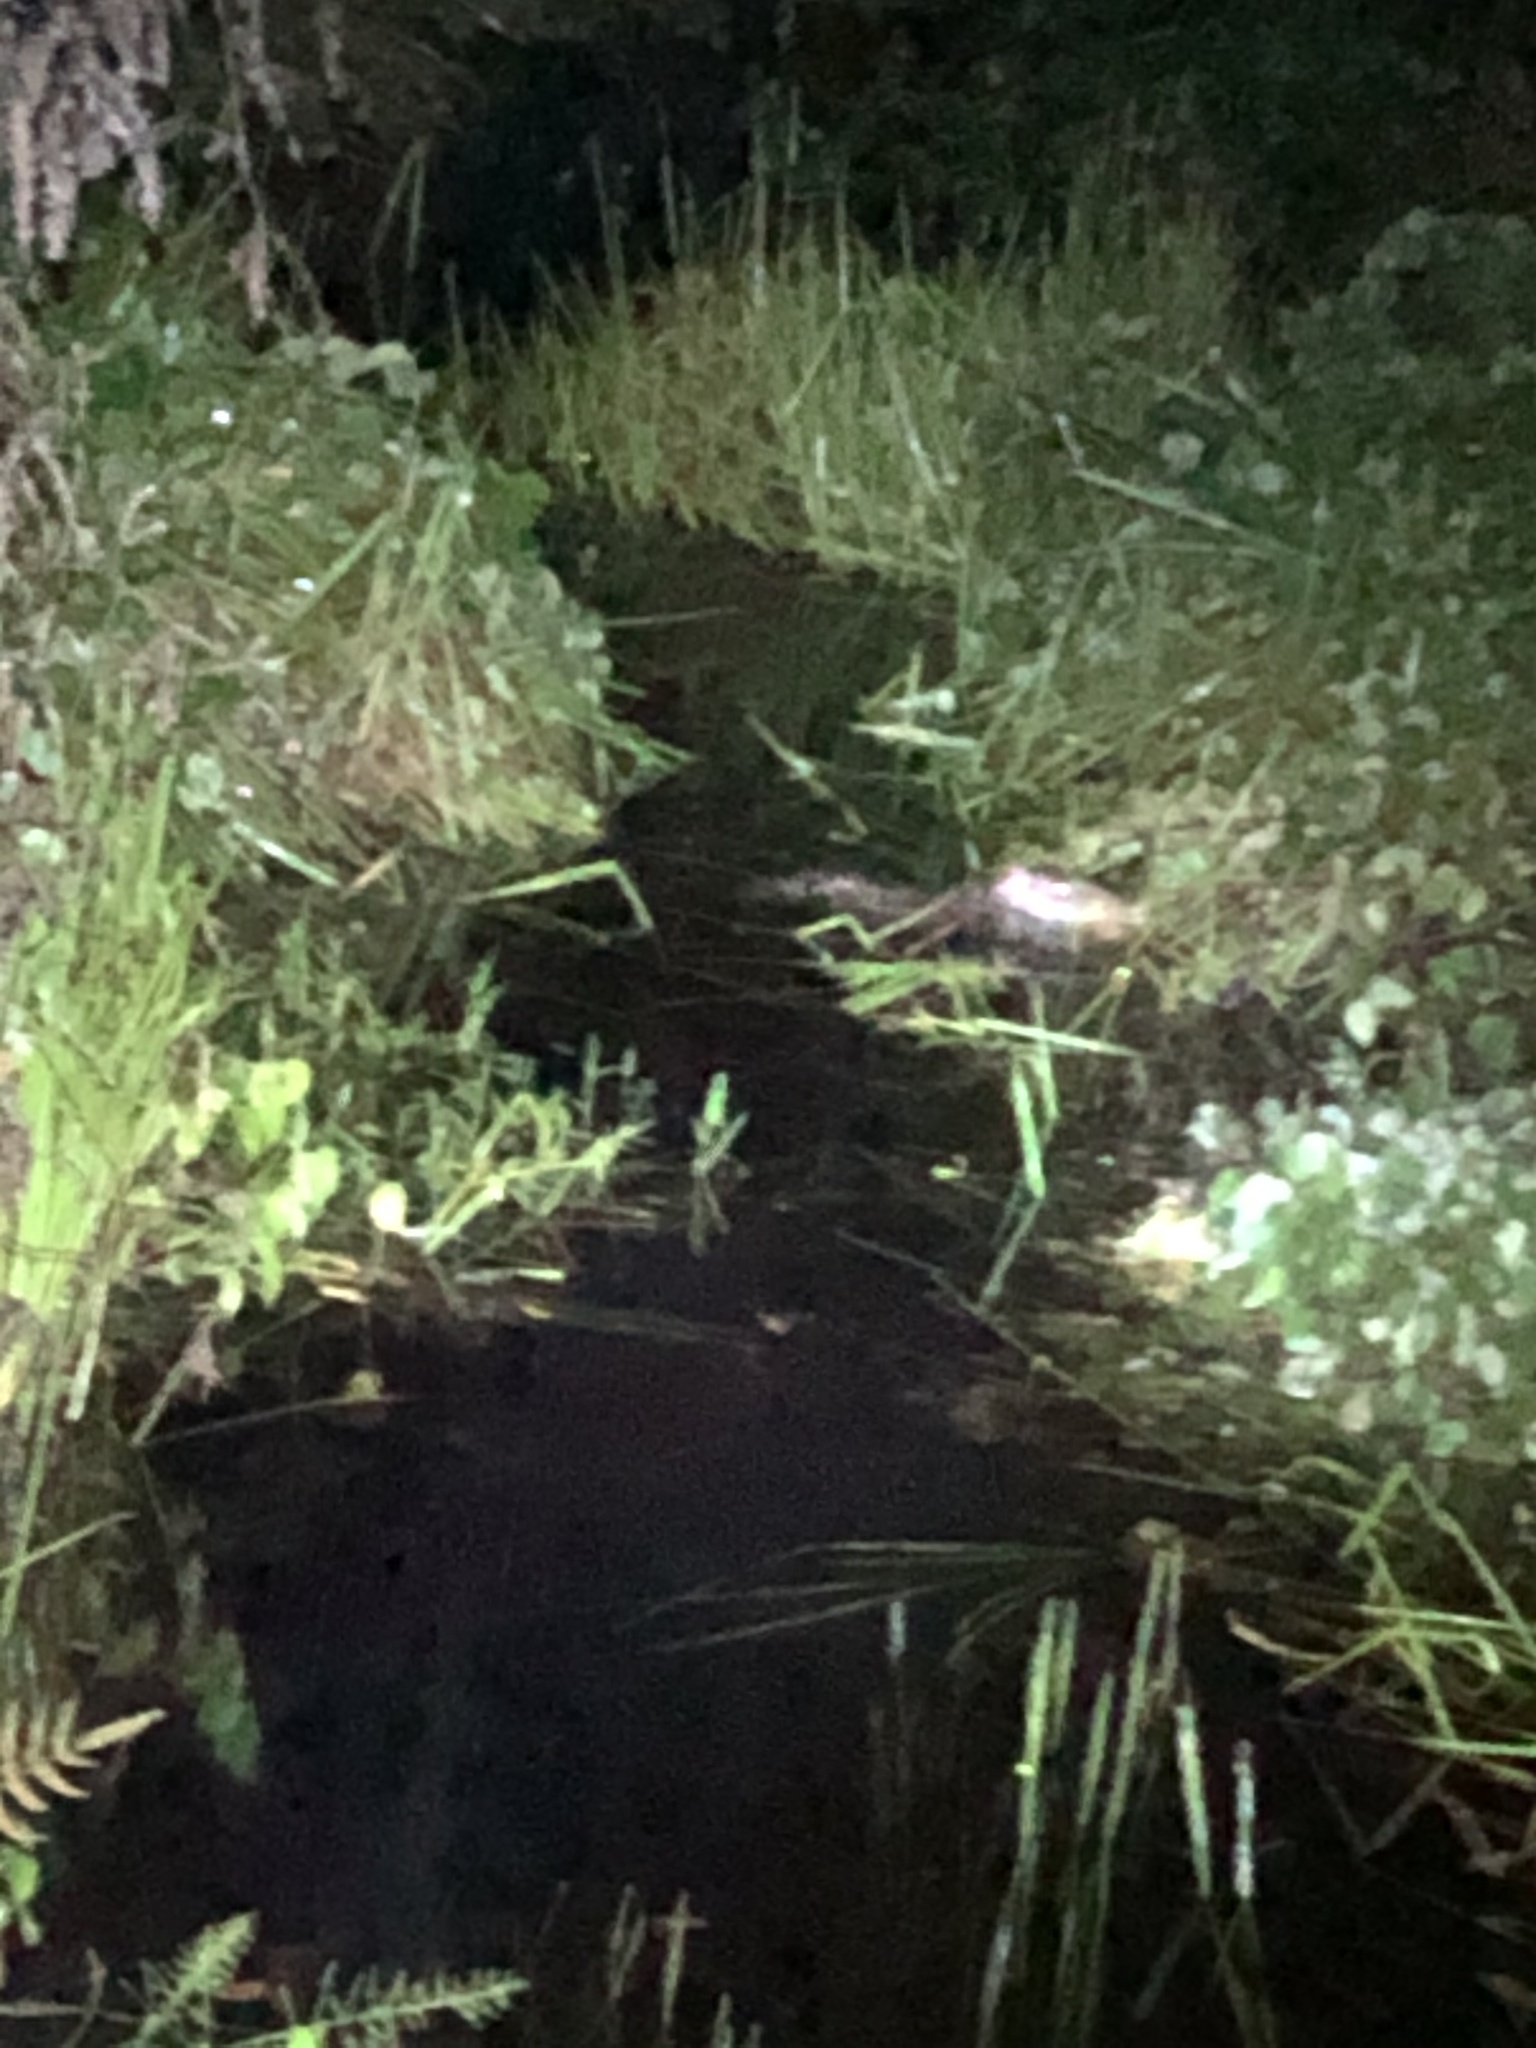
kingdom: Animalia
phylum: Chordata
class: Mammalia
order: Rodentia
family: Cuniculidae
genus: Cuniculus
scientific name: Cuniculus paca
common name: Lowland paca
